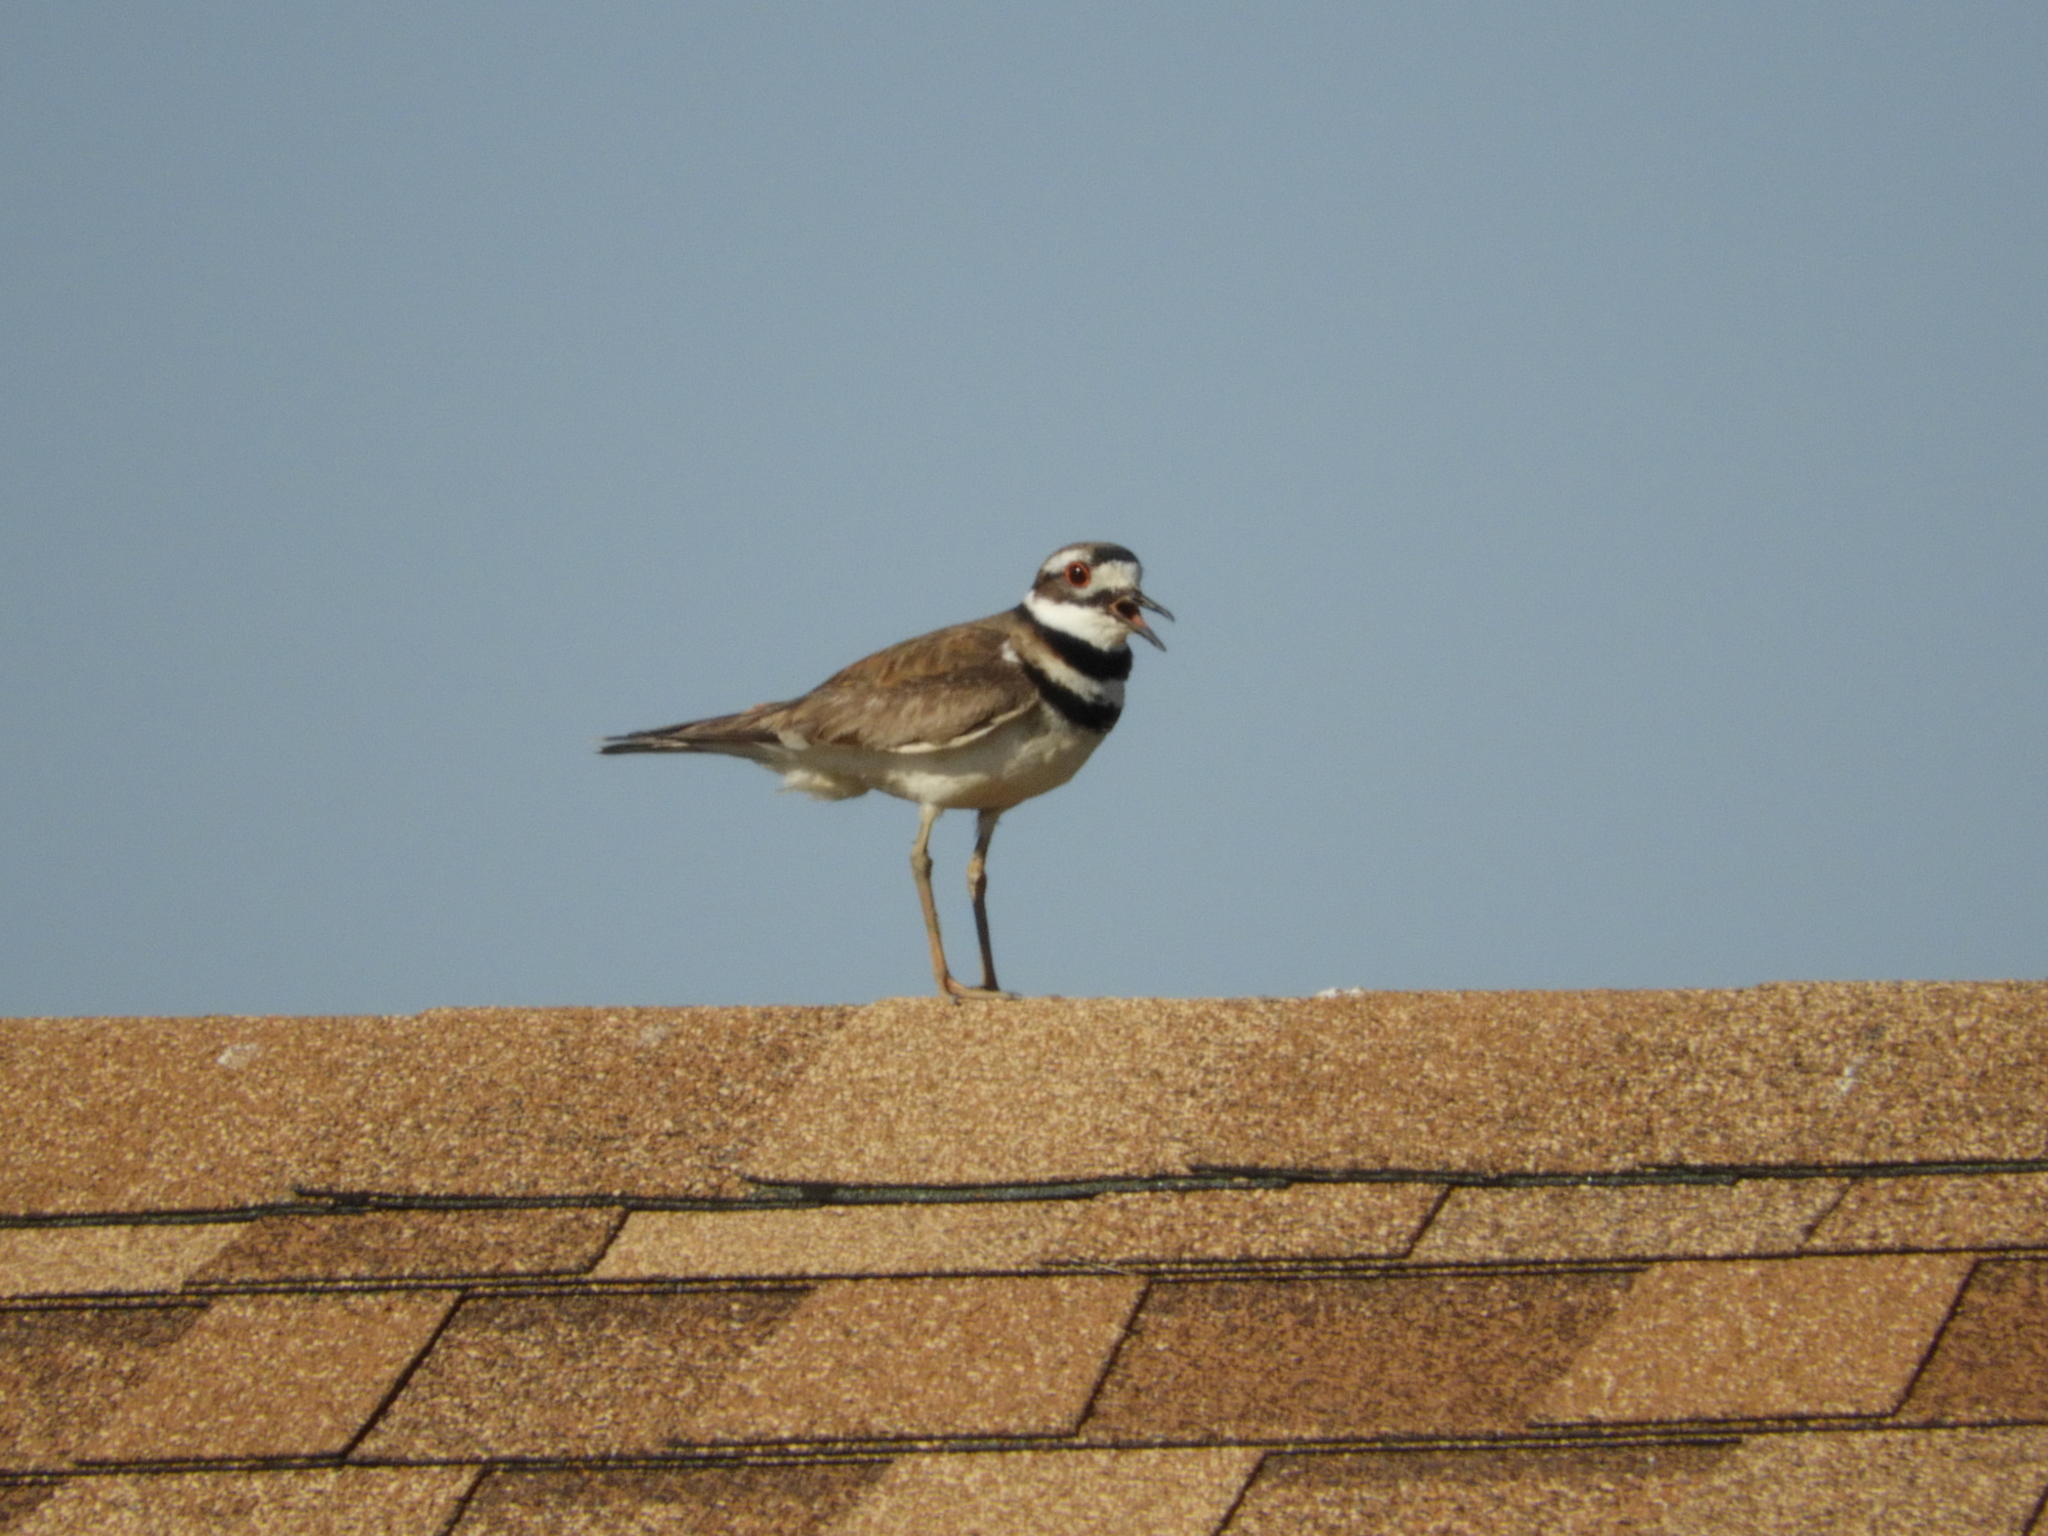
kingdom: Animalia
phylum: Chordata
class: Aves
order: Charadriiformes
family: Charadriidae
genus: Charadrius
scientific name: Charadrius vociferus
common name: Killdeer
